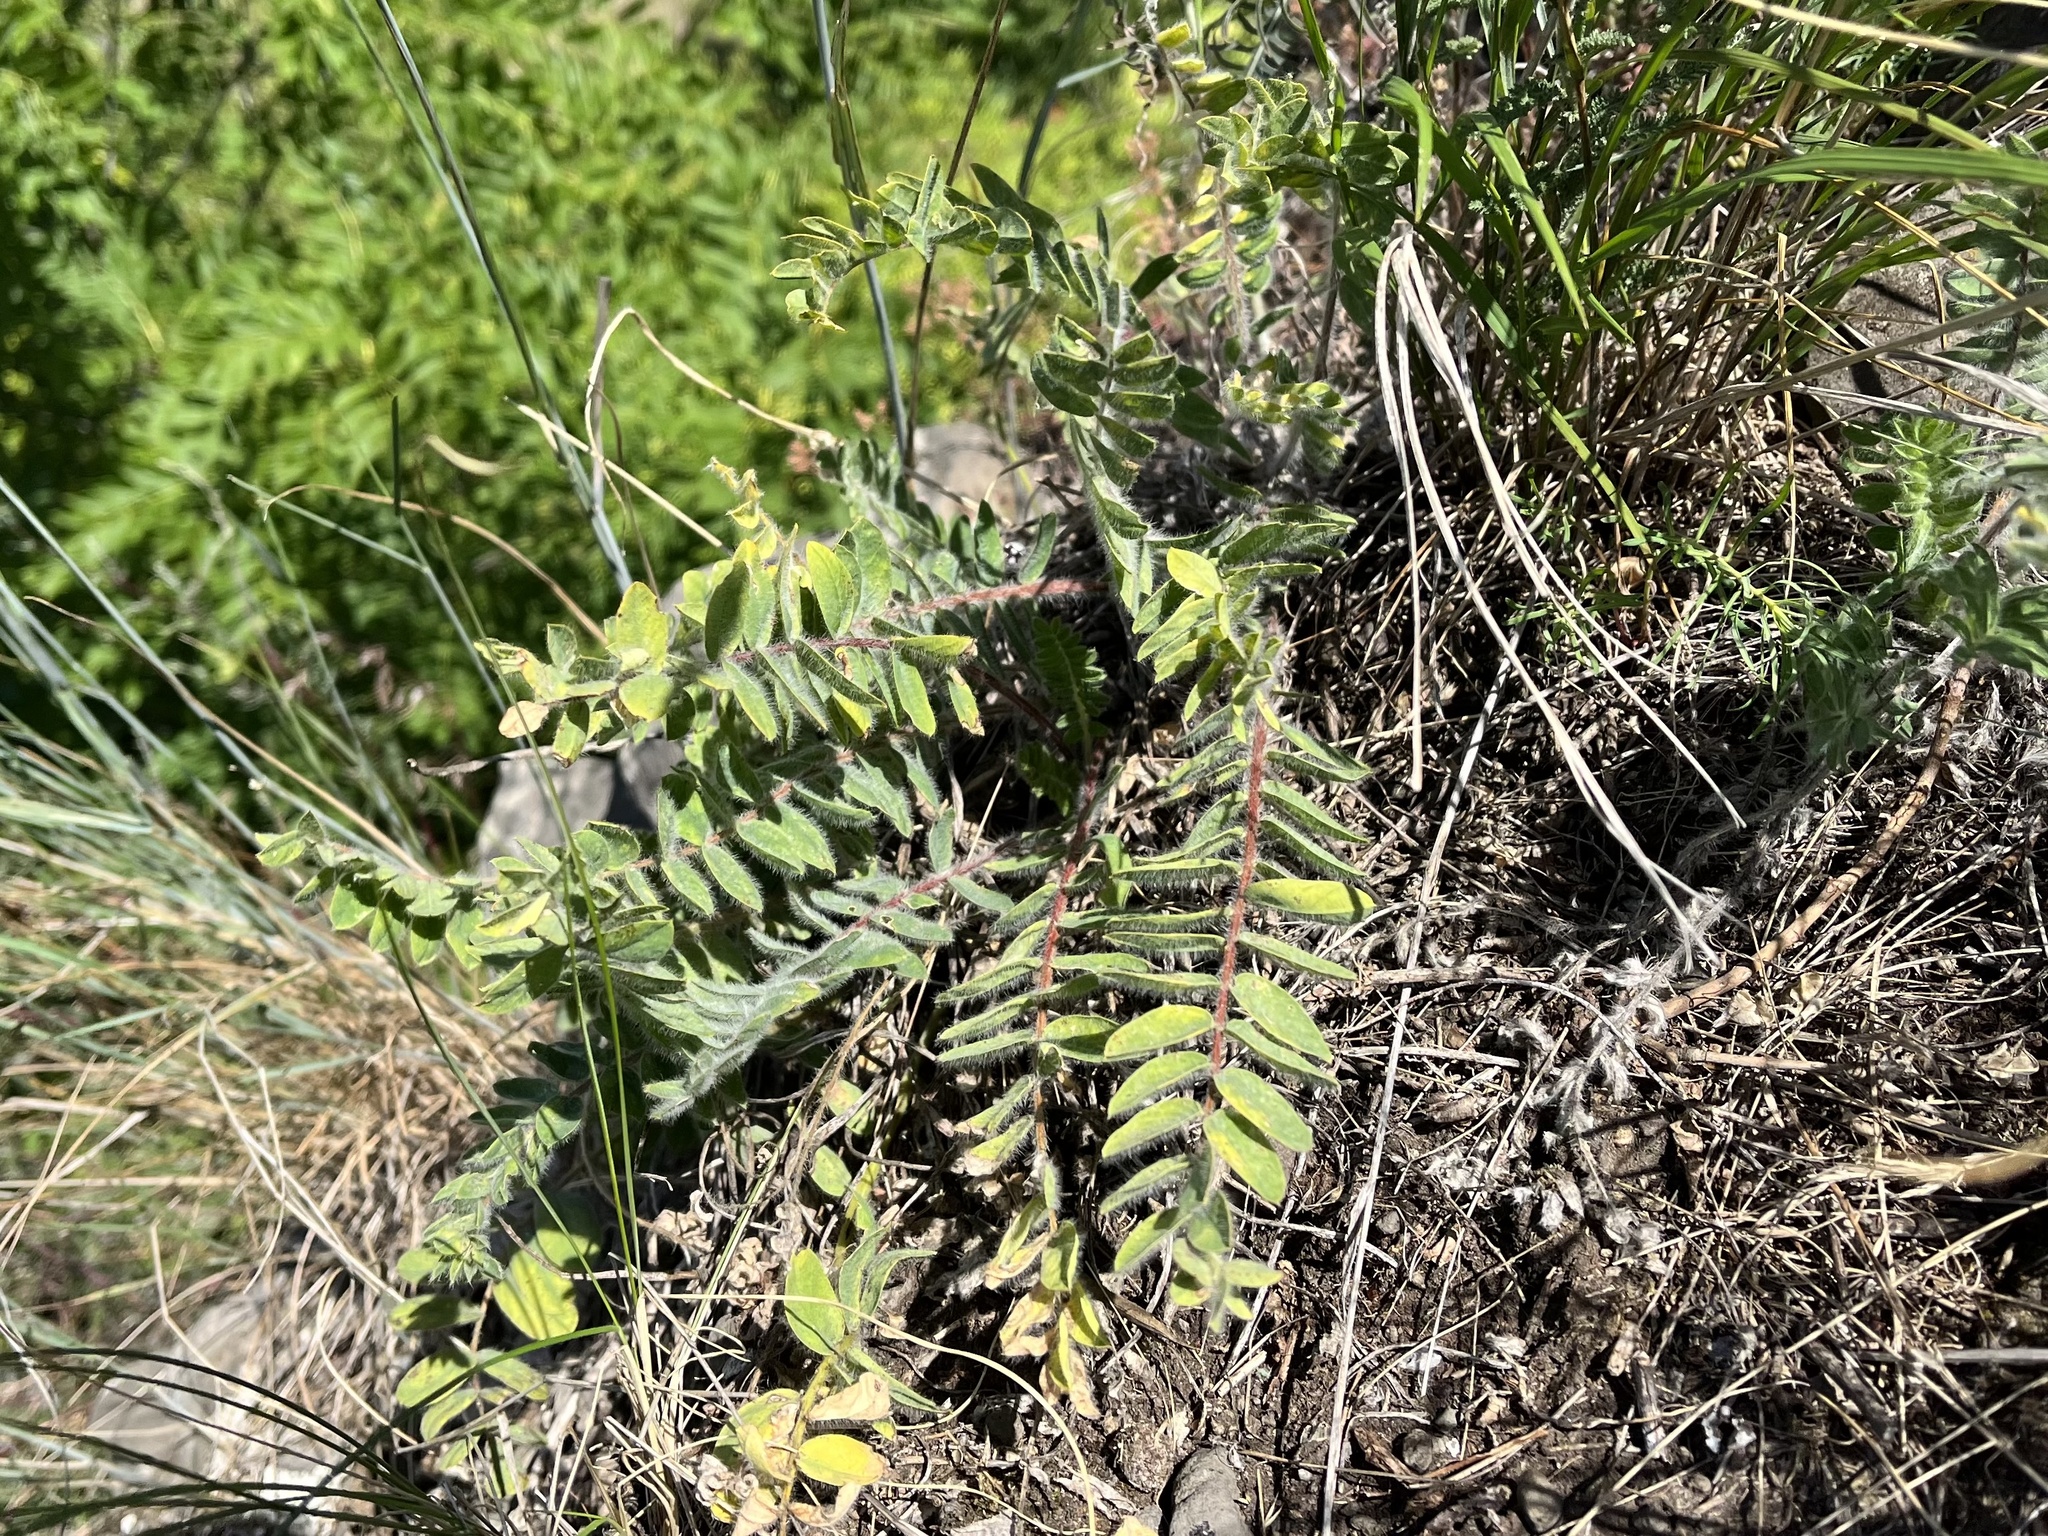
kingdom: Plantae
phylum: Tracheophyta
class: Magnoliopsida
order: Fabales
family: Fabaceae
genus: Astragalus
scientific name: Astragalus exscapus
